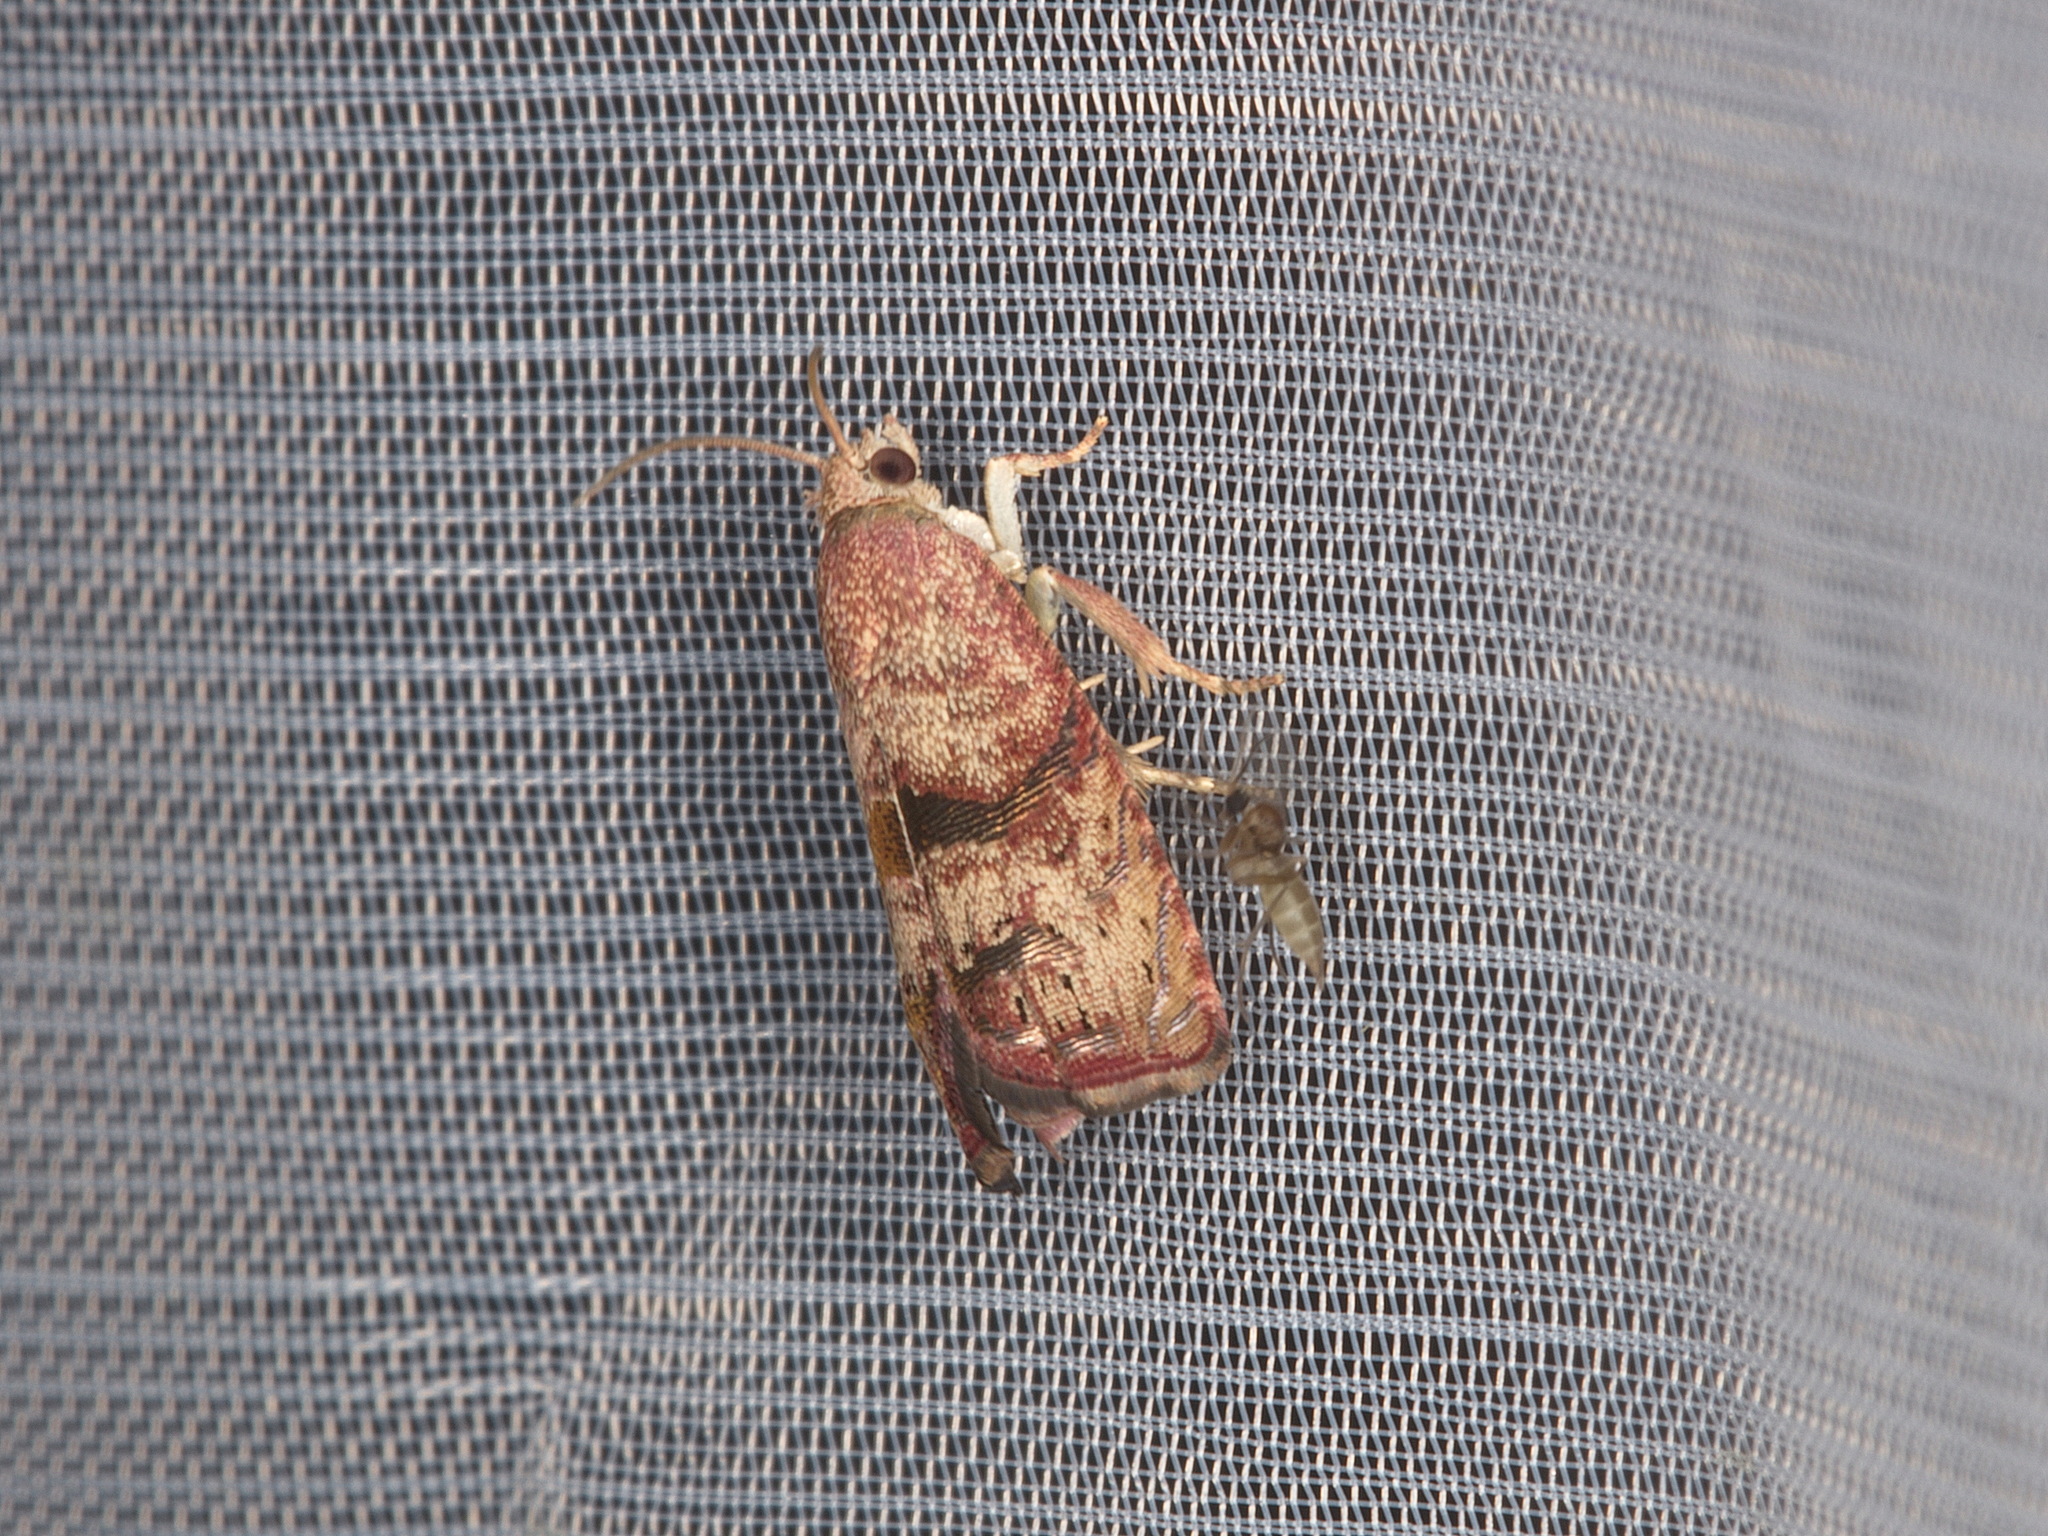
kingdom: Animalia
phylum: Arthropoda
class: Insecta
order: Lepidoptera
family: Tortricidae
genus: Cydia
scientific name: Cydia latiferreana
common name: Filbertworm moth
